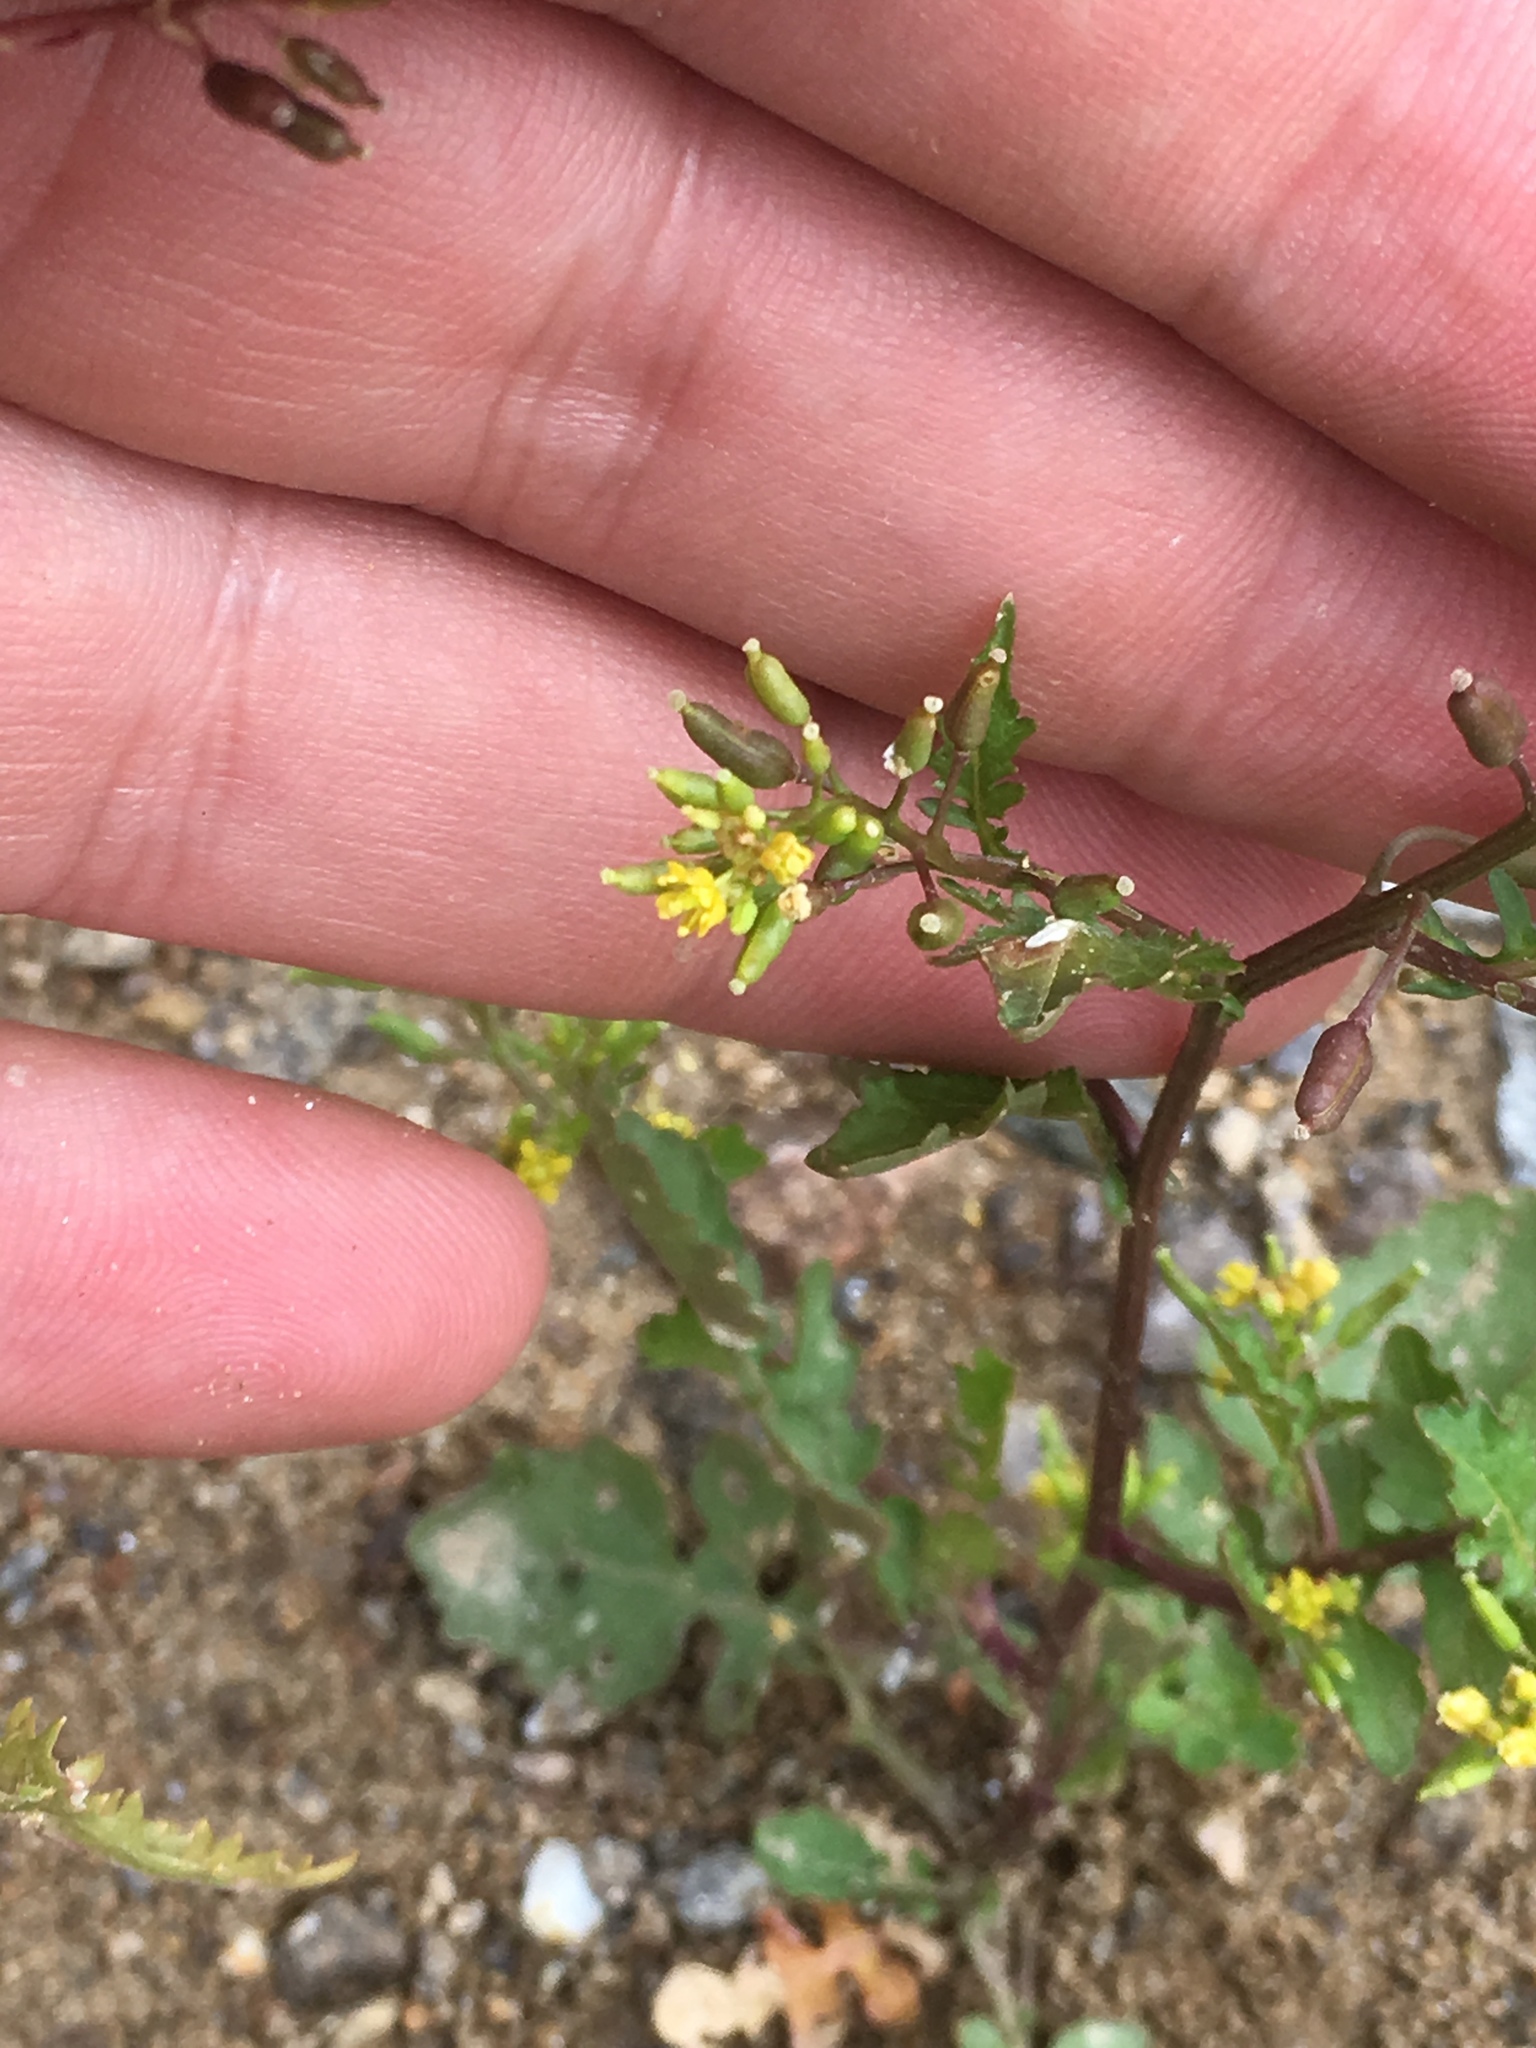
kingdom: Plantae
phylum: Tracheophyta
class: Magnoliopsida
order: Brassicales
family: Brassicaceae
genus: Rorippa
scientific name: Rorippa palustris
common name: Marsh yellow-cress
